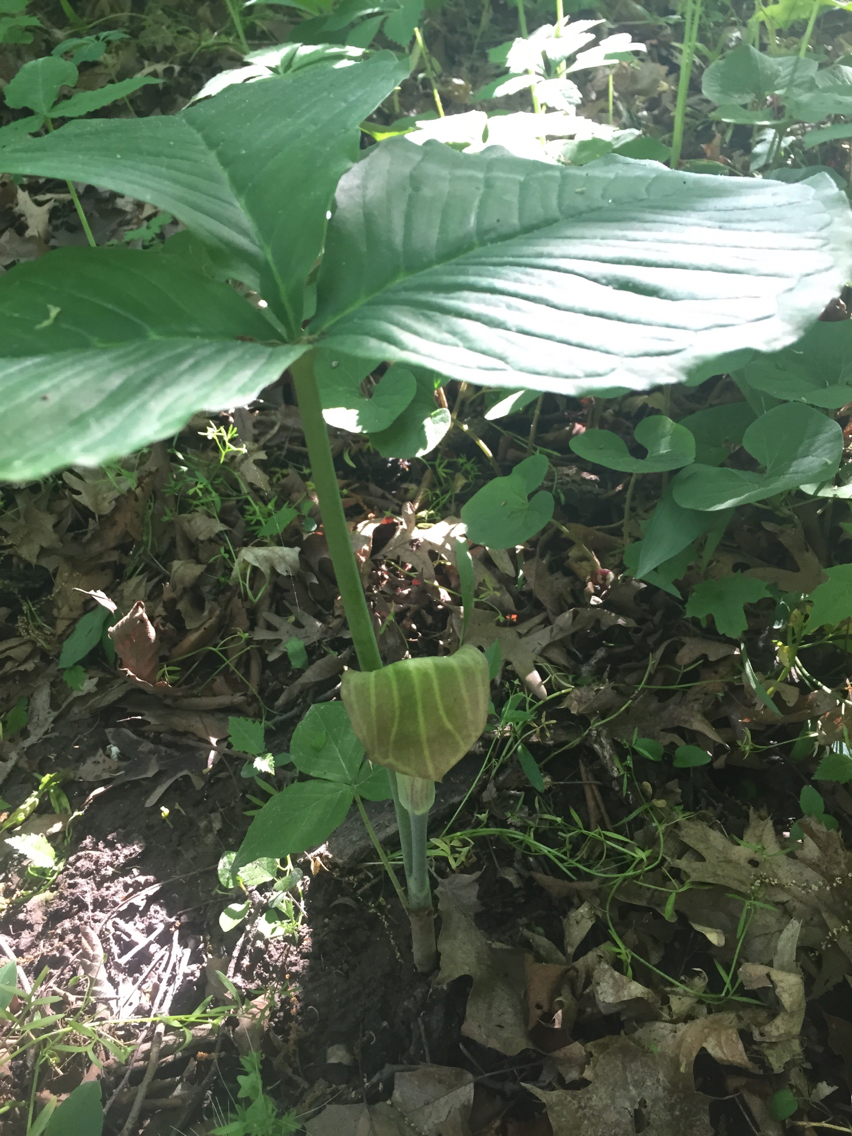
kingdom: Plantae
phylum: Tracheophyta
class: Liliopsida
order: Alismatales
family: Araceae
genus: Arisaema
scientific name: Arisaema triphyllum
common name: Jack-in-the-pulpit
